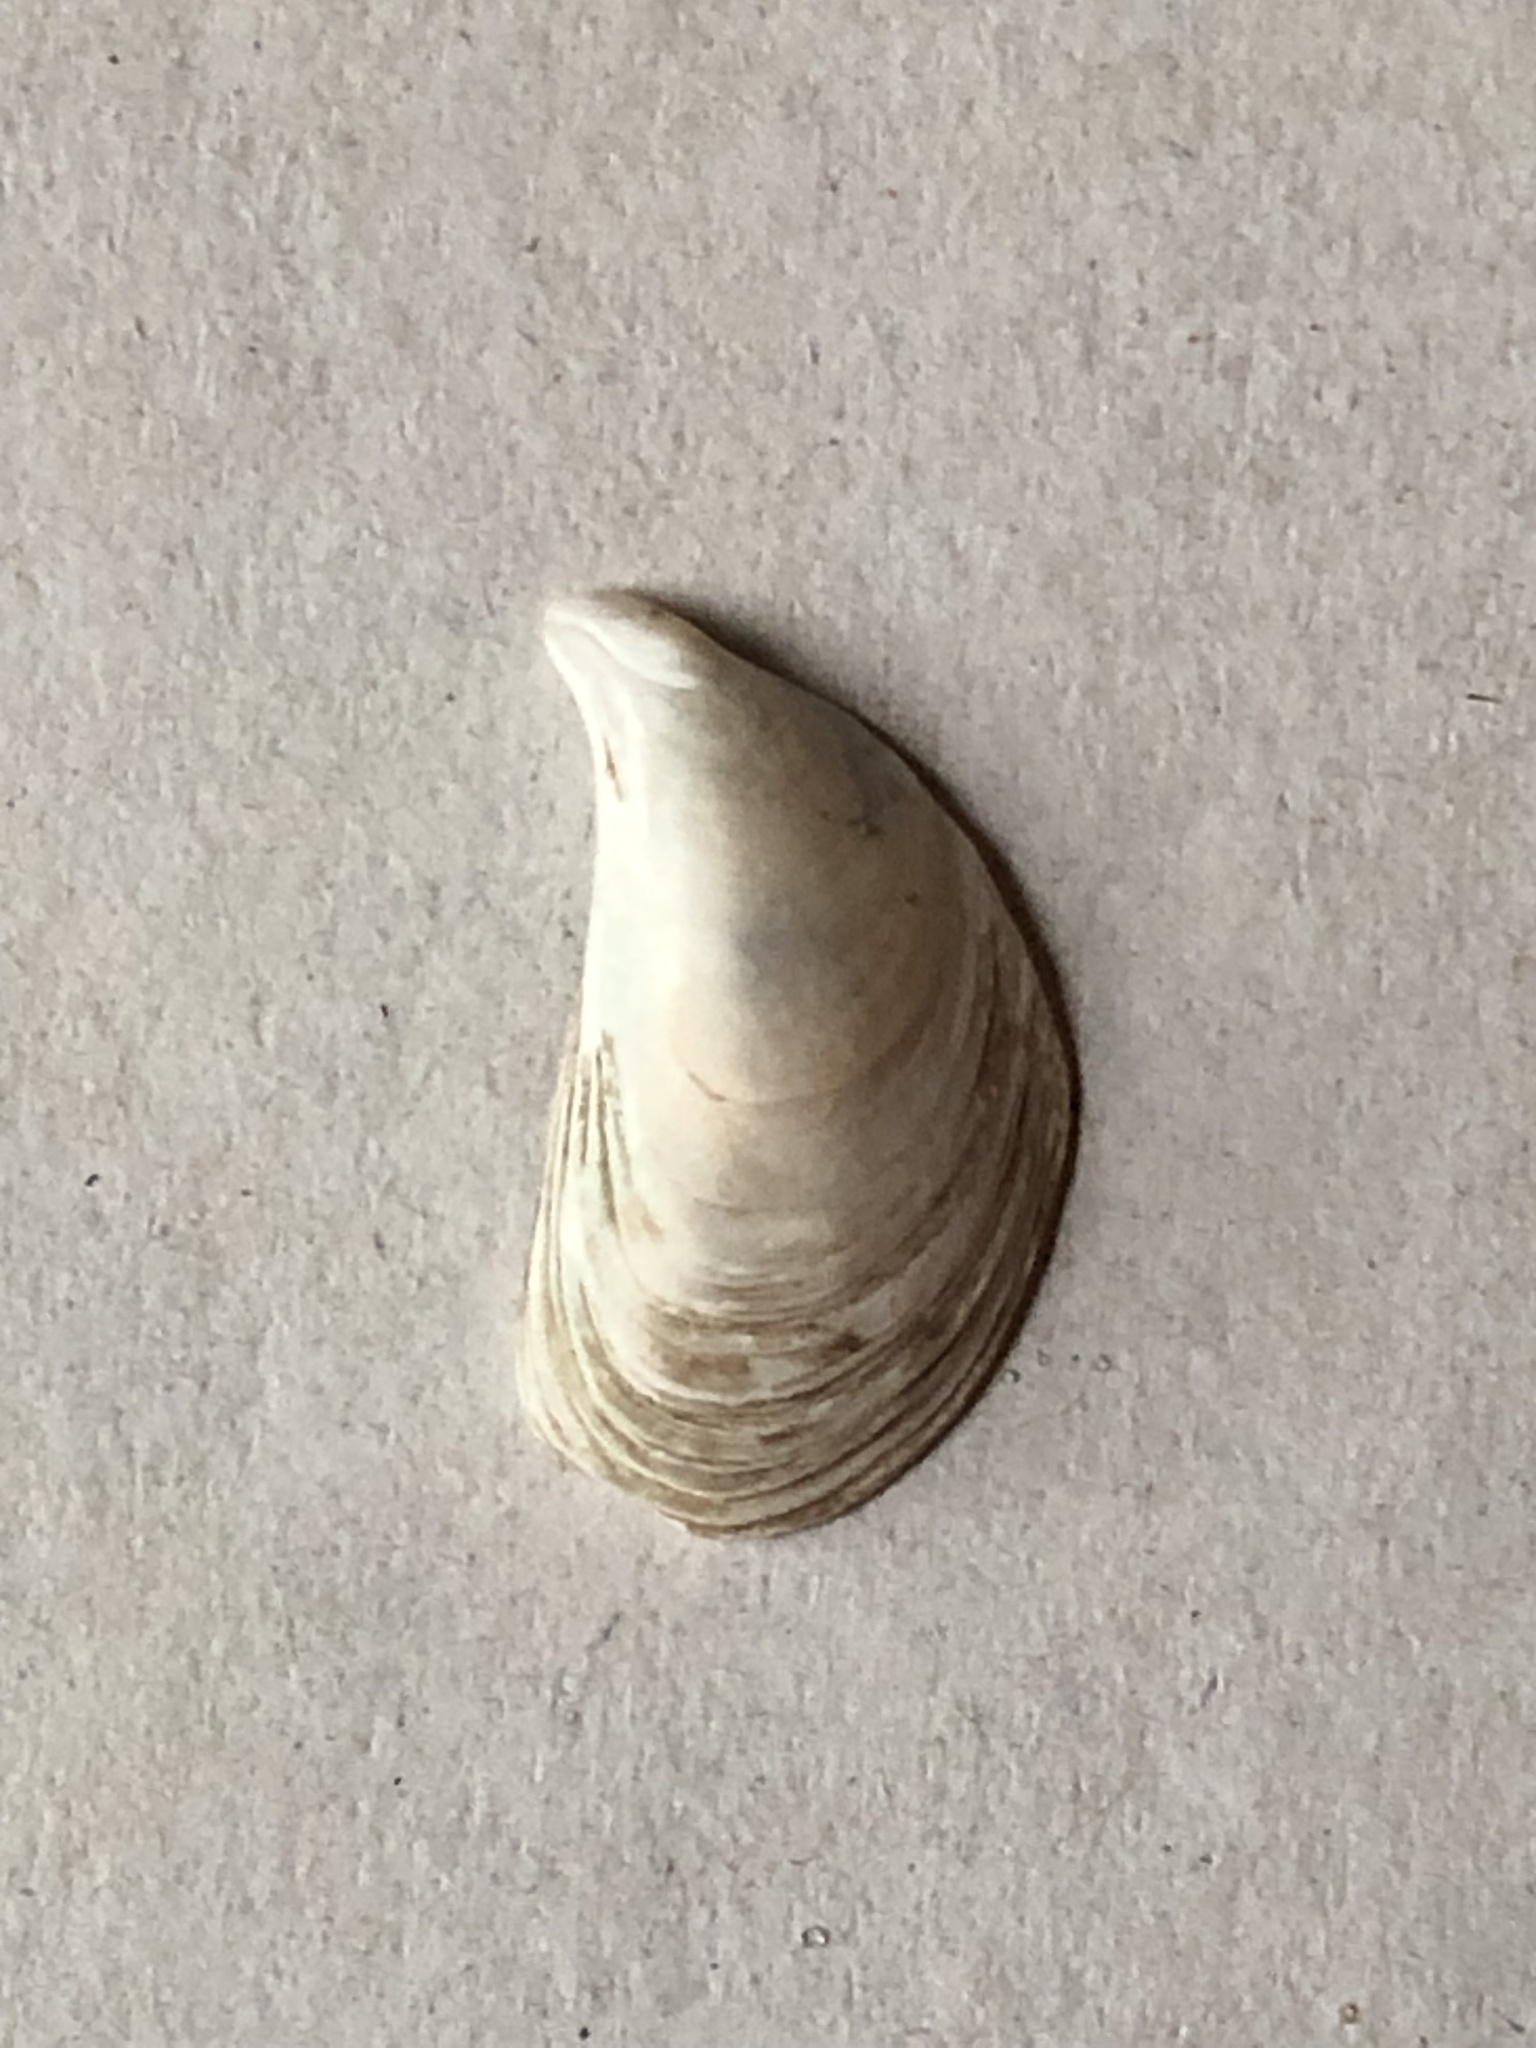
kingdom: Animalia
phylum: Mollusca
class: Bivalvia
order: Myida
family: Dreissenidae
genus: Dreissena
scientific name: Dreissena bugensis
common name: Quagga mussel
